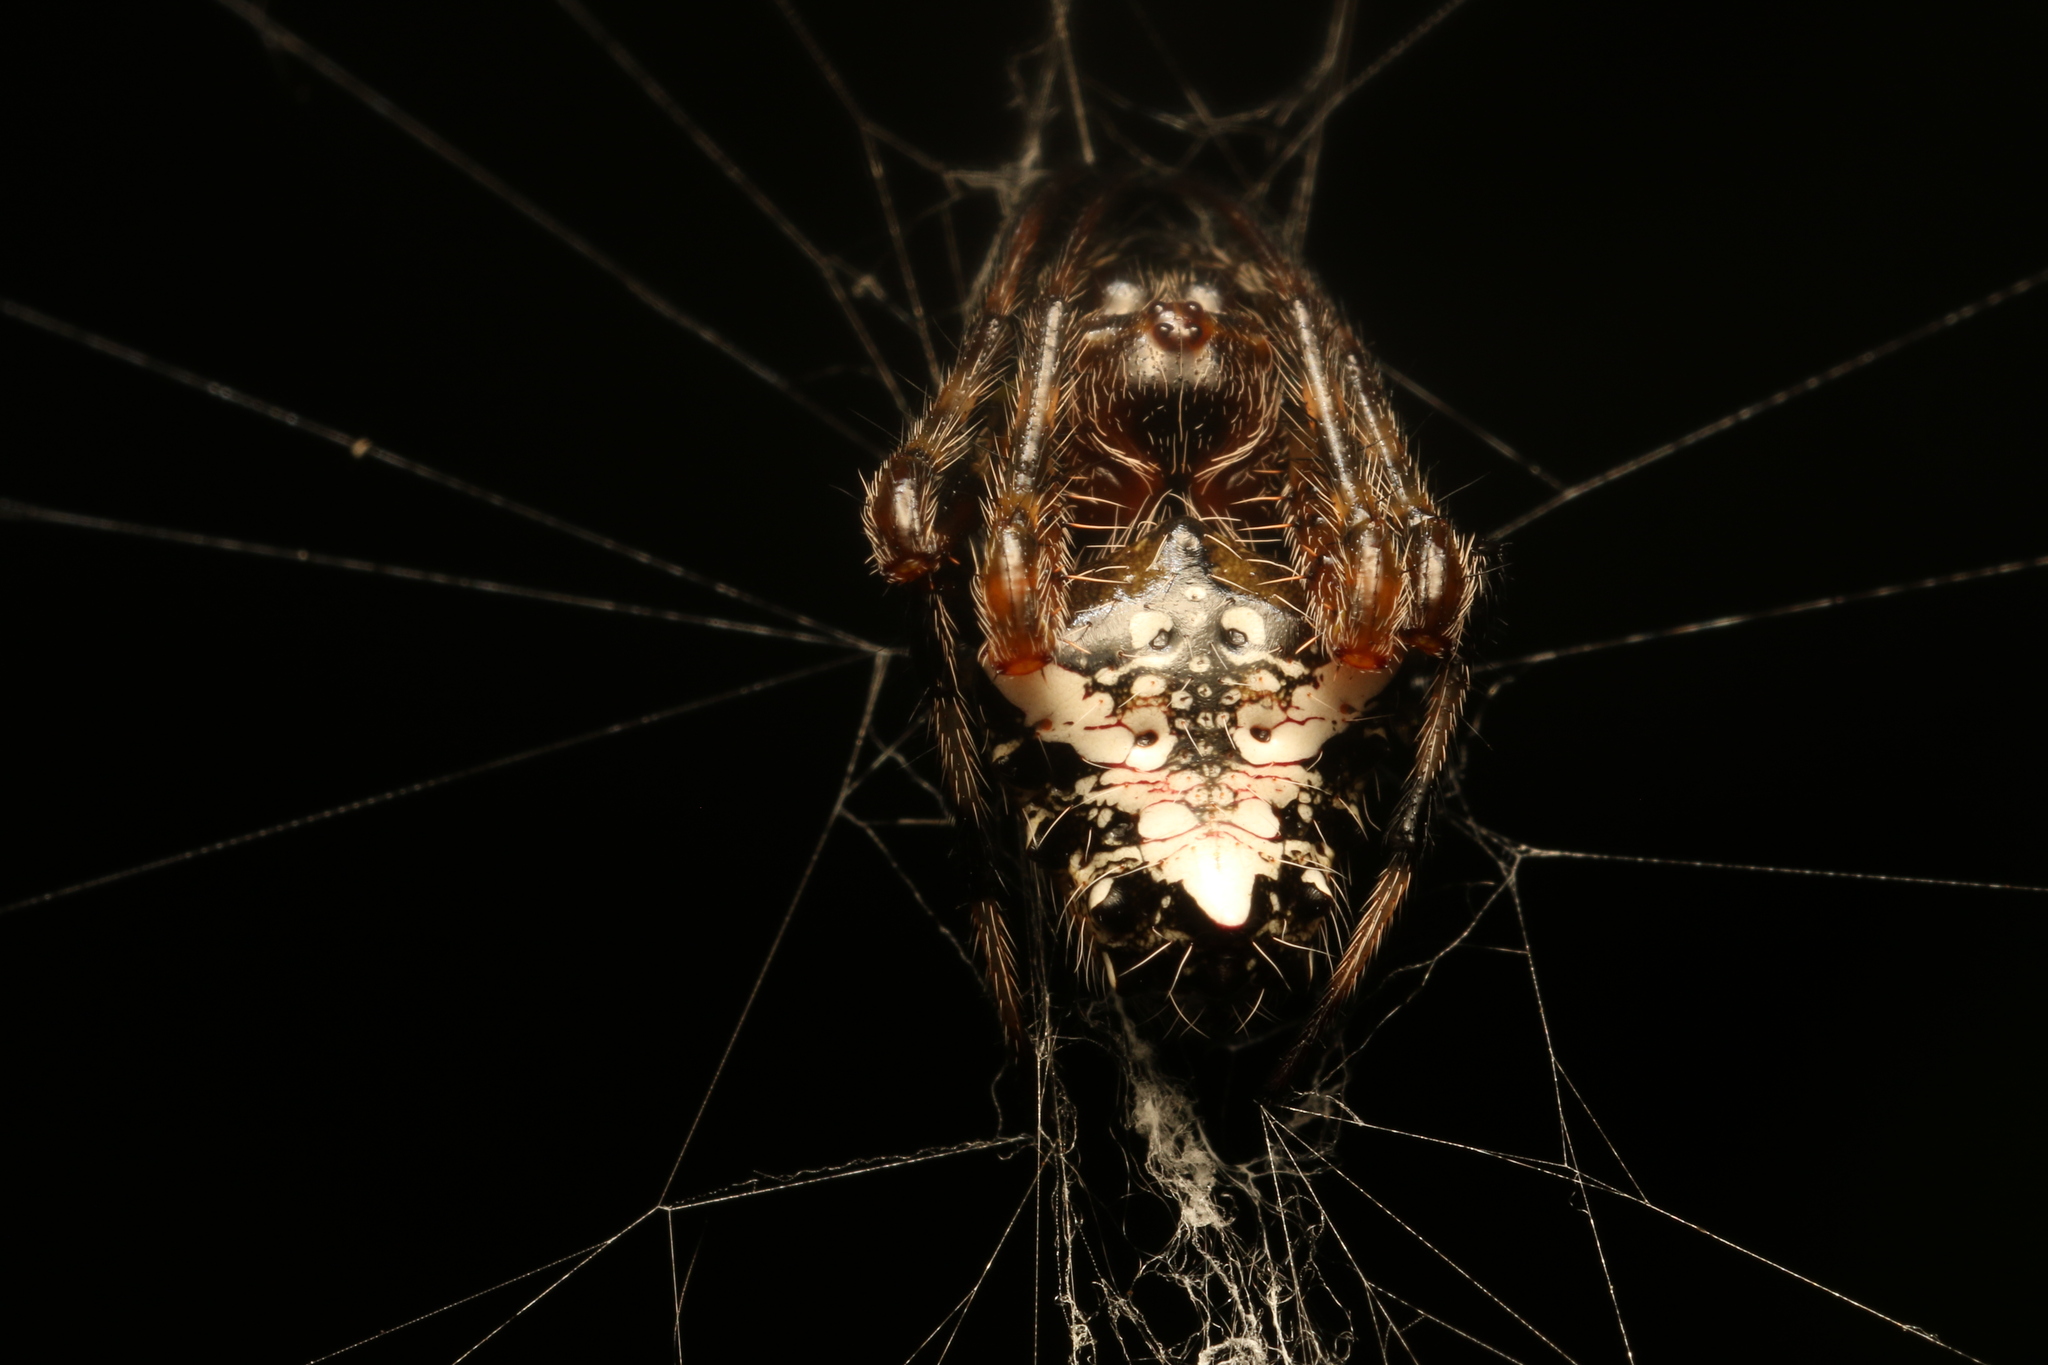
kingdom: Animalia
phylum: Arthropoda
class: Arachnida
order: Araneae
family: Araneidae
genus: Verrucosa
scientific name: Verrucosa meridionalis
